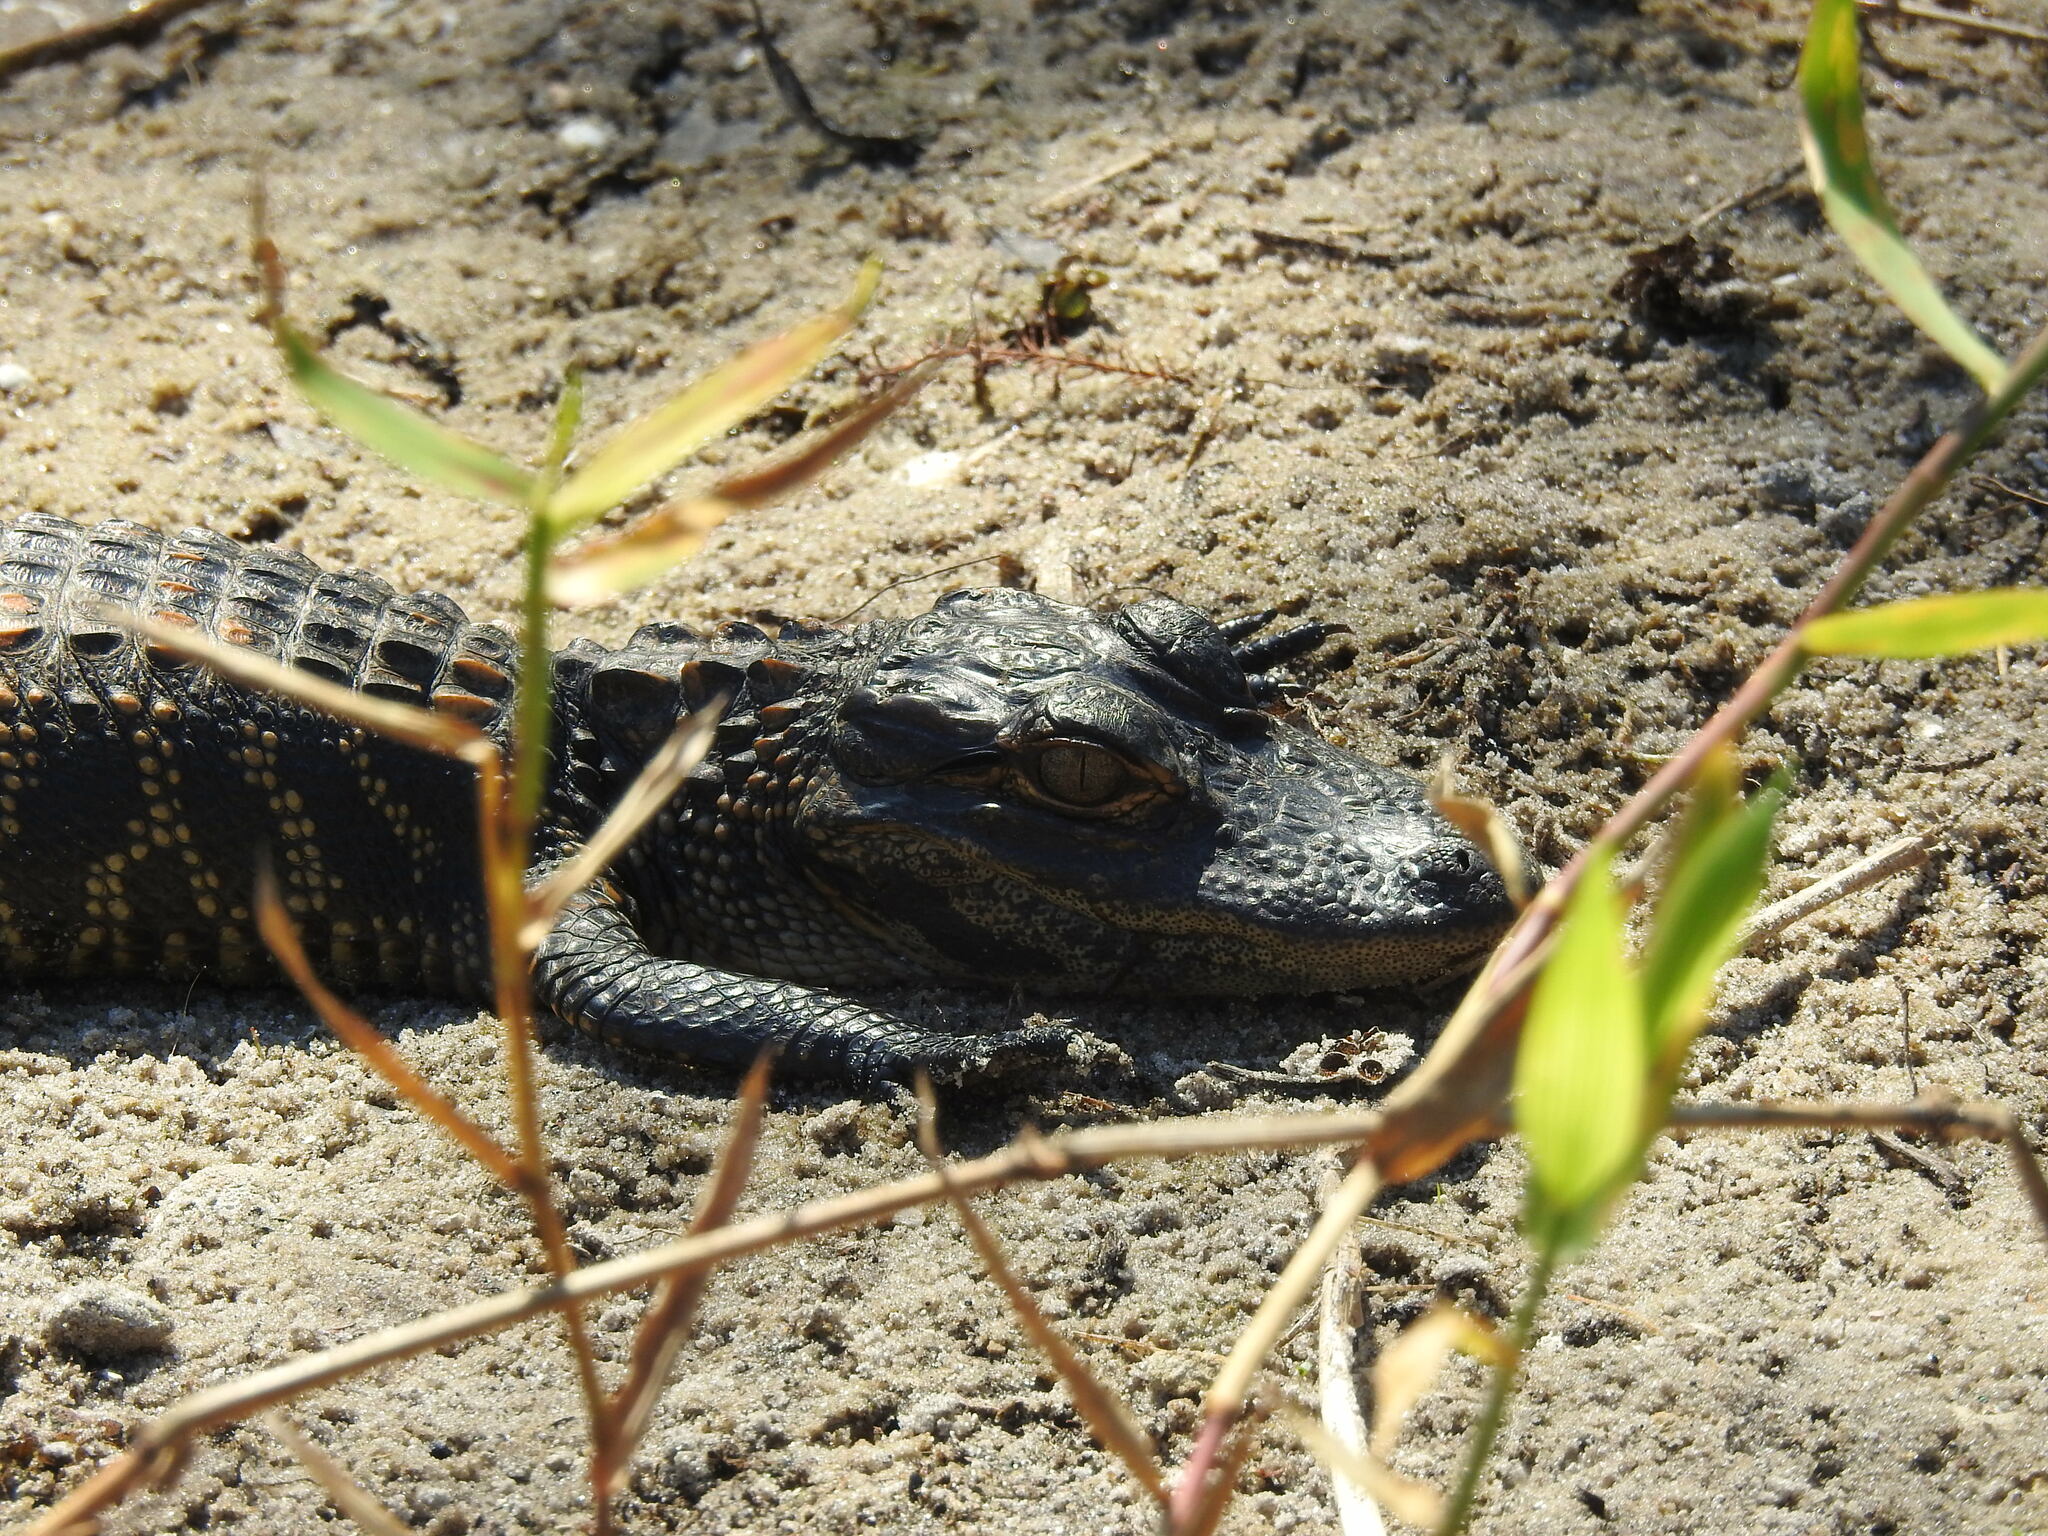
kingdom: Animalia
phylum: Chordata
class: Crocodylia
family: Alligatoridae
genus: Alligator
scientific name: Alligator mississippiensis
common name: American alligator
